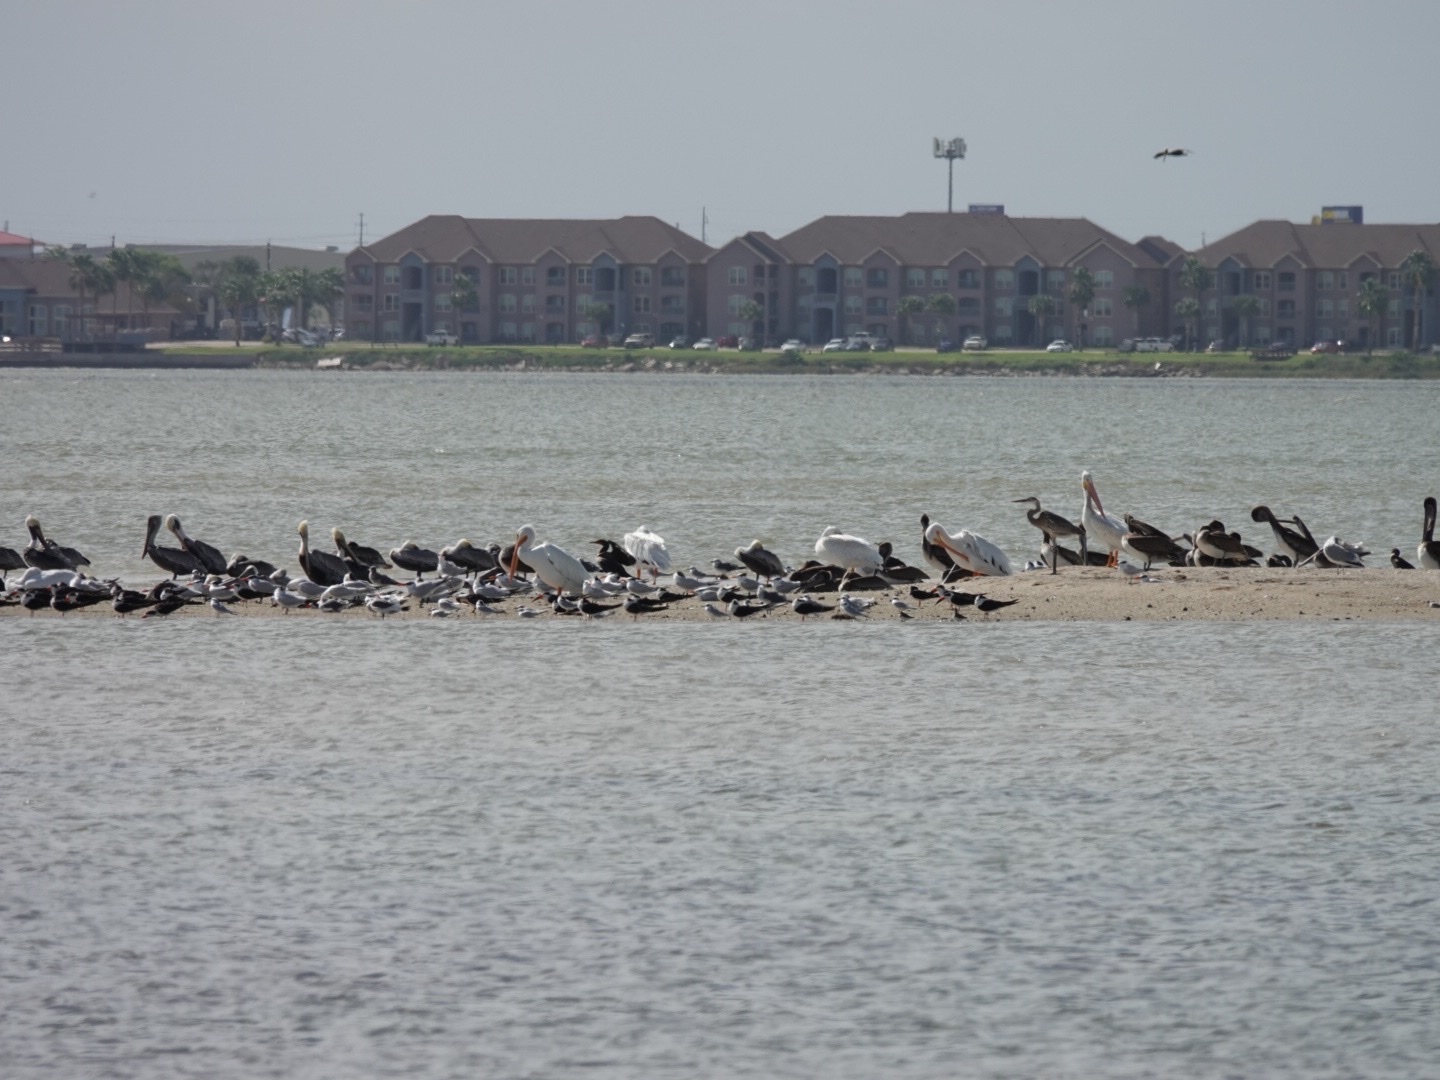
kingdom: Animalia
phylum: Chordata
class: Aves
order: Pelecaniformes
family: Pelecanidae
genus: Pelecanus
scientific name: Pelecanus occidentalis
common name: Brown pelican
